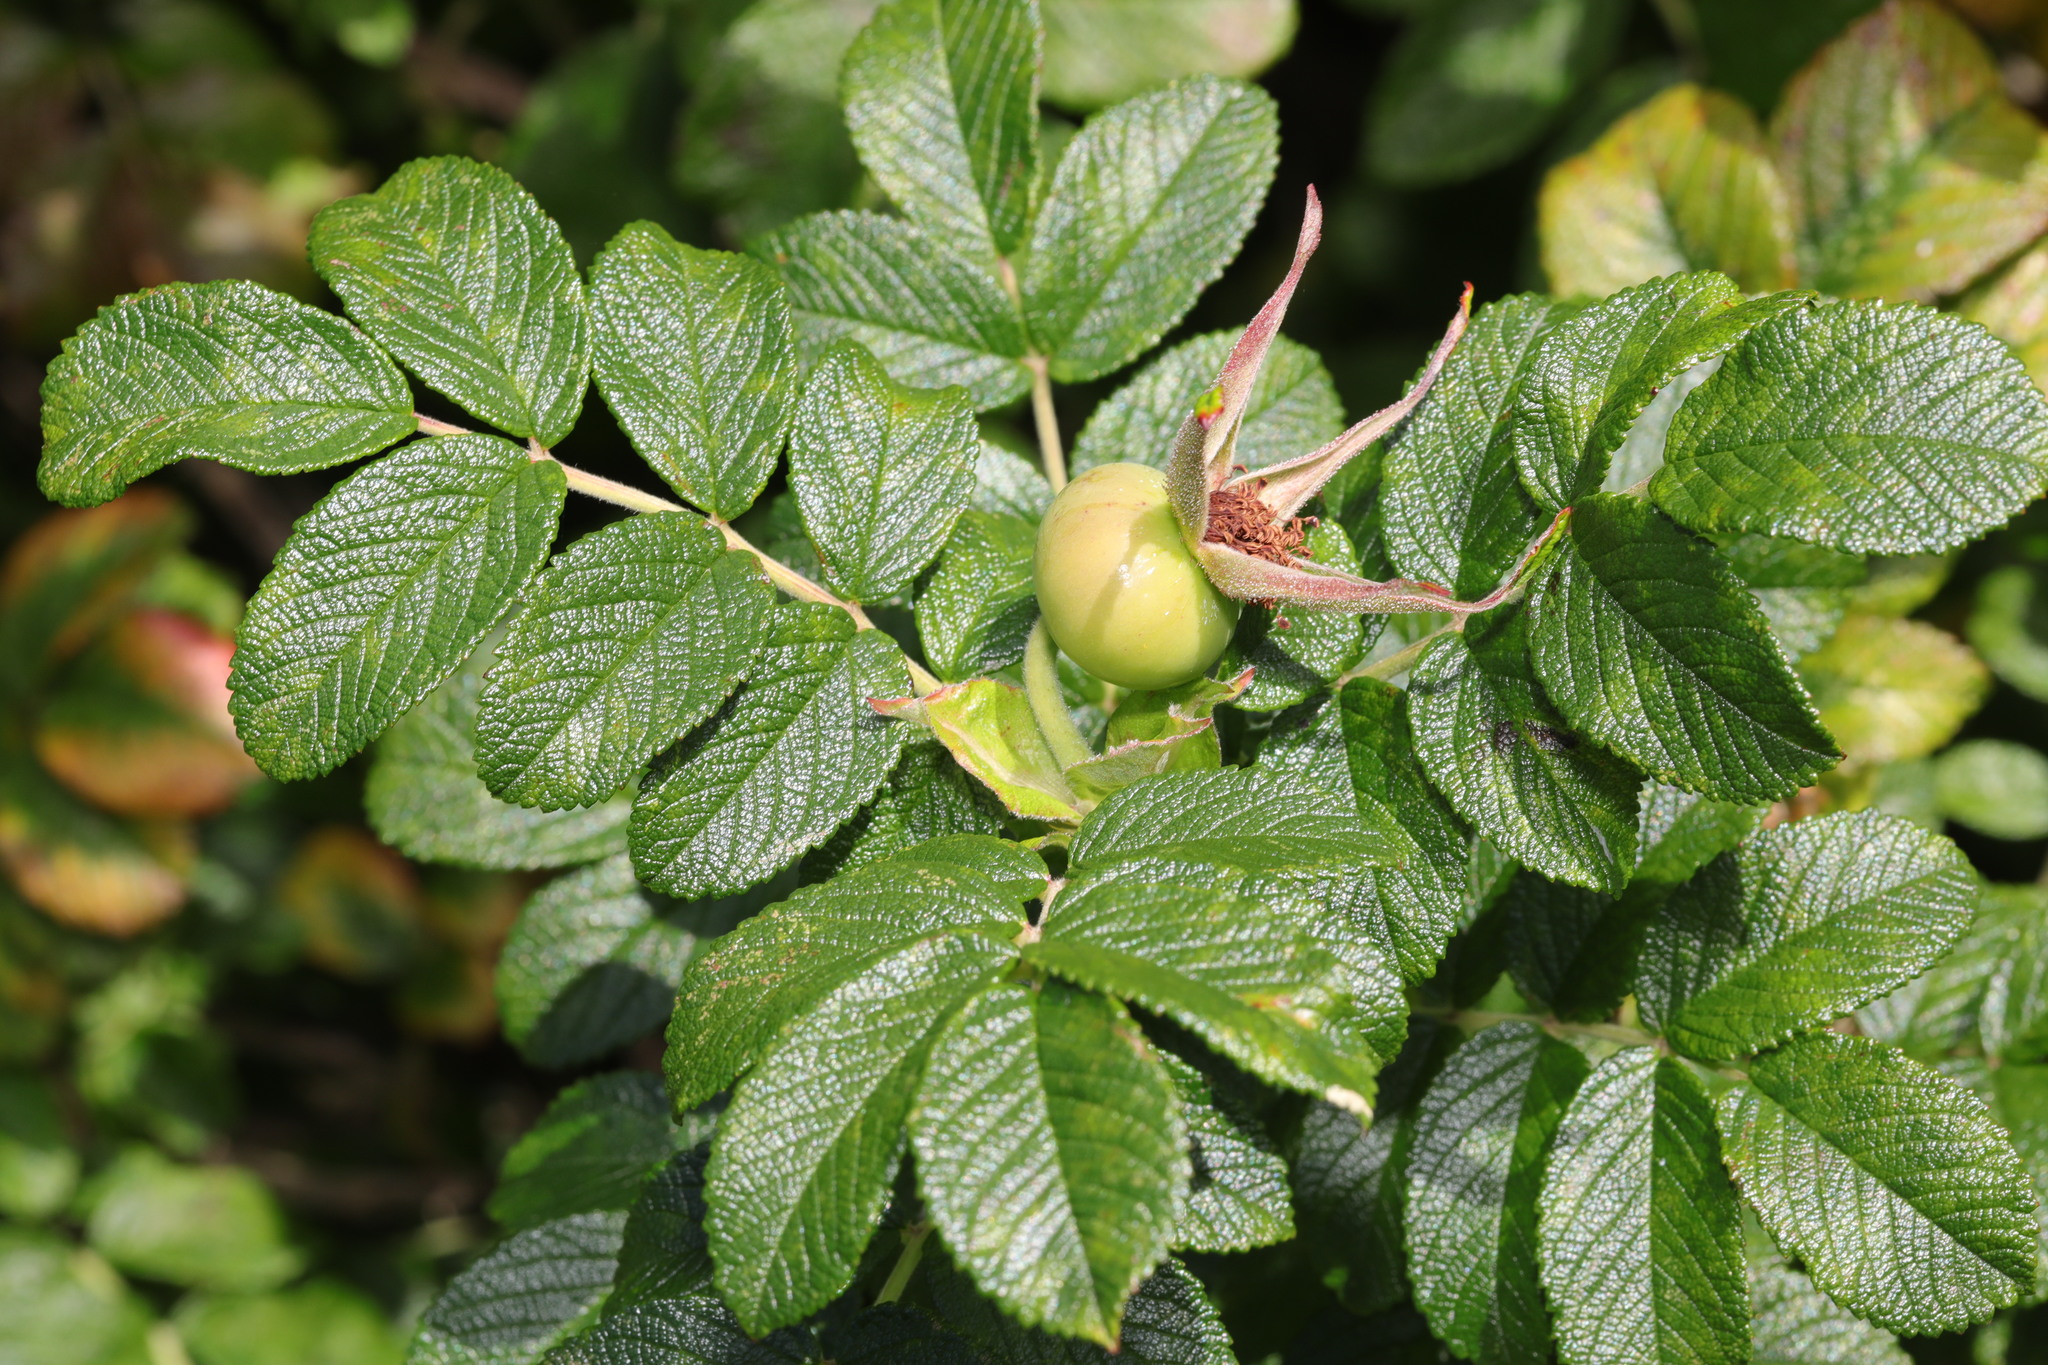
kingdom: Plantae
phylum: Tracheophyta
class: Magnoliopsida
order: Rosales
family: Rosaceae
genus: Rosa
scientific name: Rosa rugosa
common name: Japanese rose
